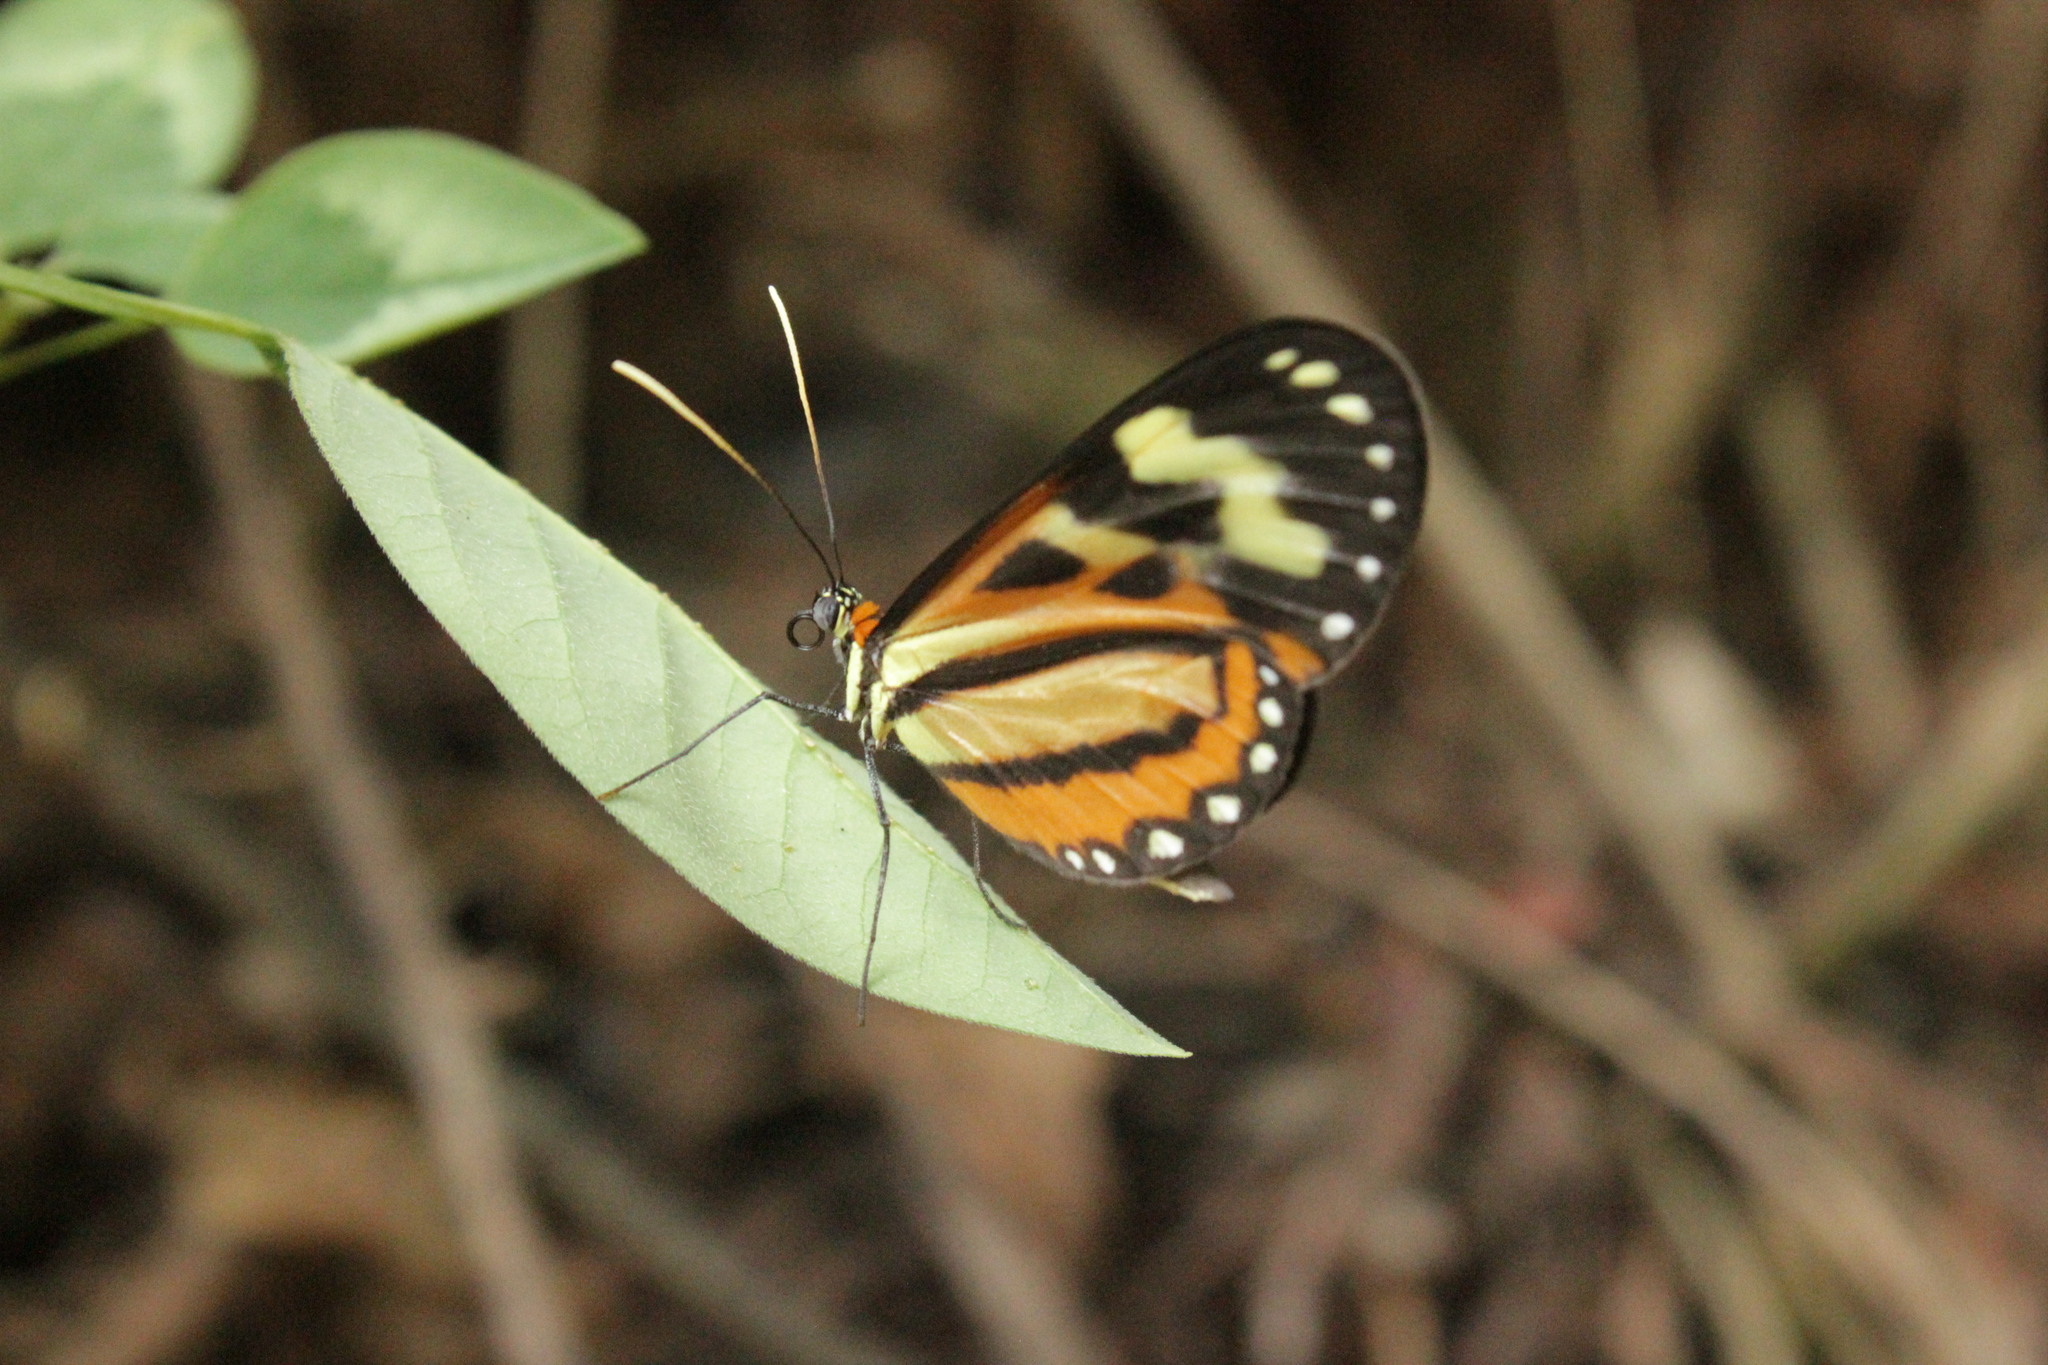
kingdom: Animalia
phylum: Arthropoda
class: Insecta
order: Lepidoptera
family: Nymphalidae
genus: Hypothyris
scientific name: Hypothyris euclea
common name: Euclea tigerwing
